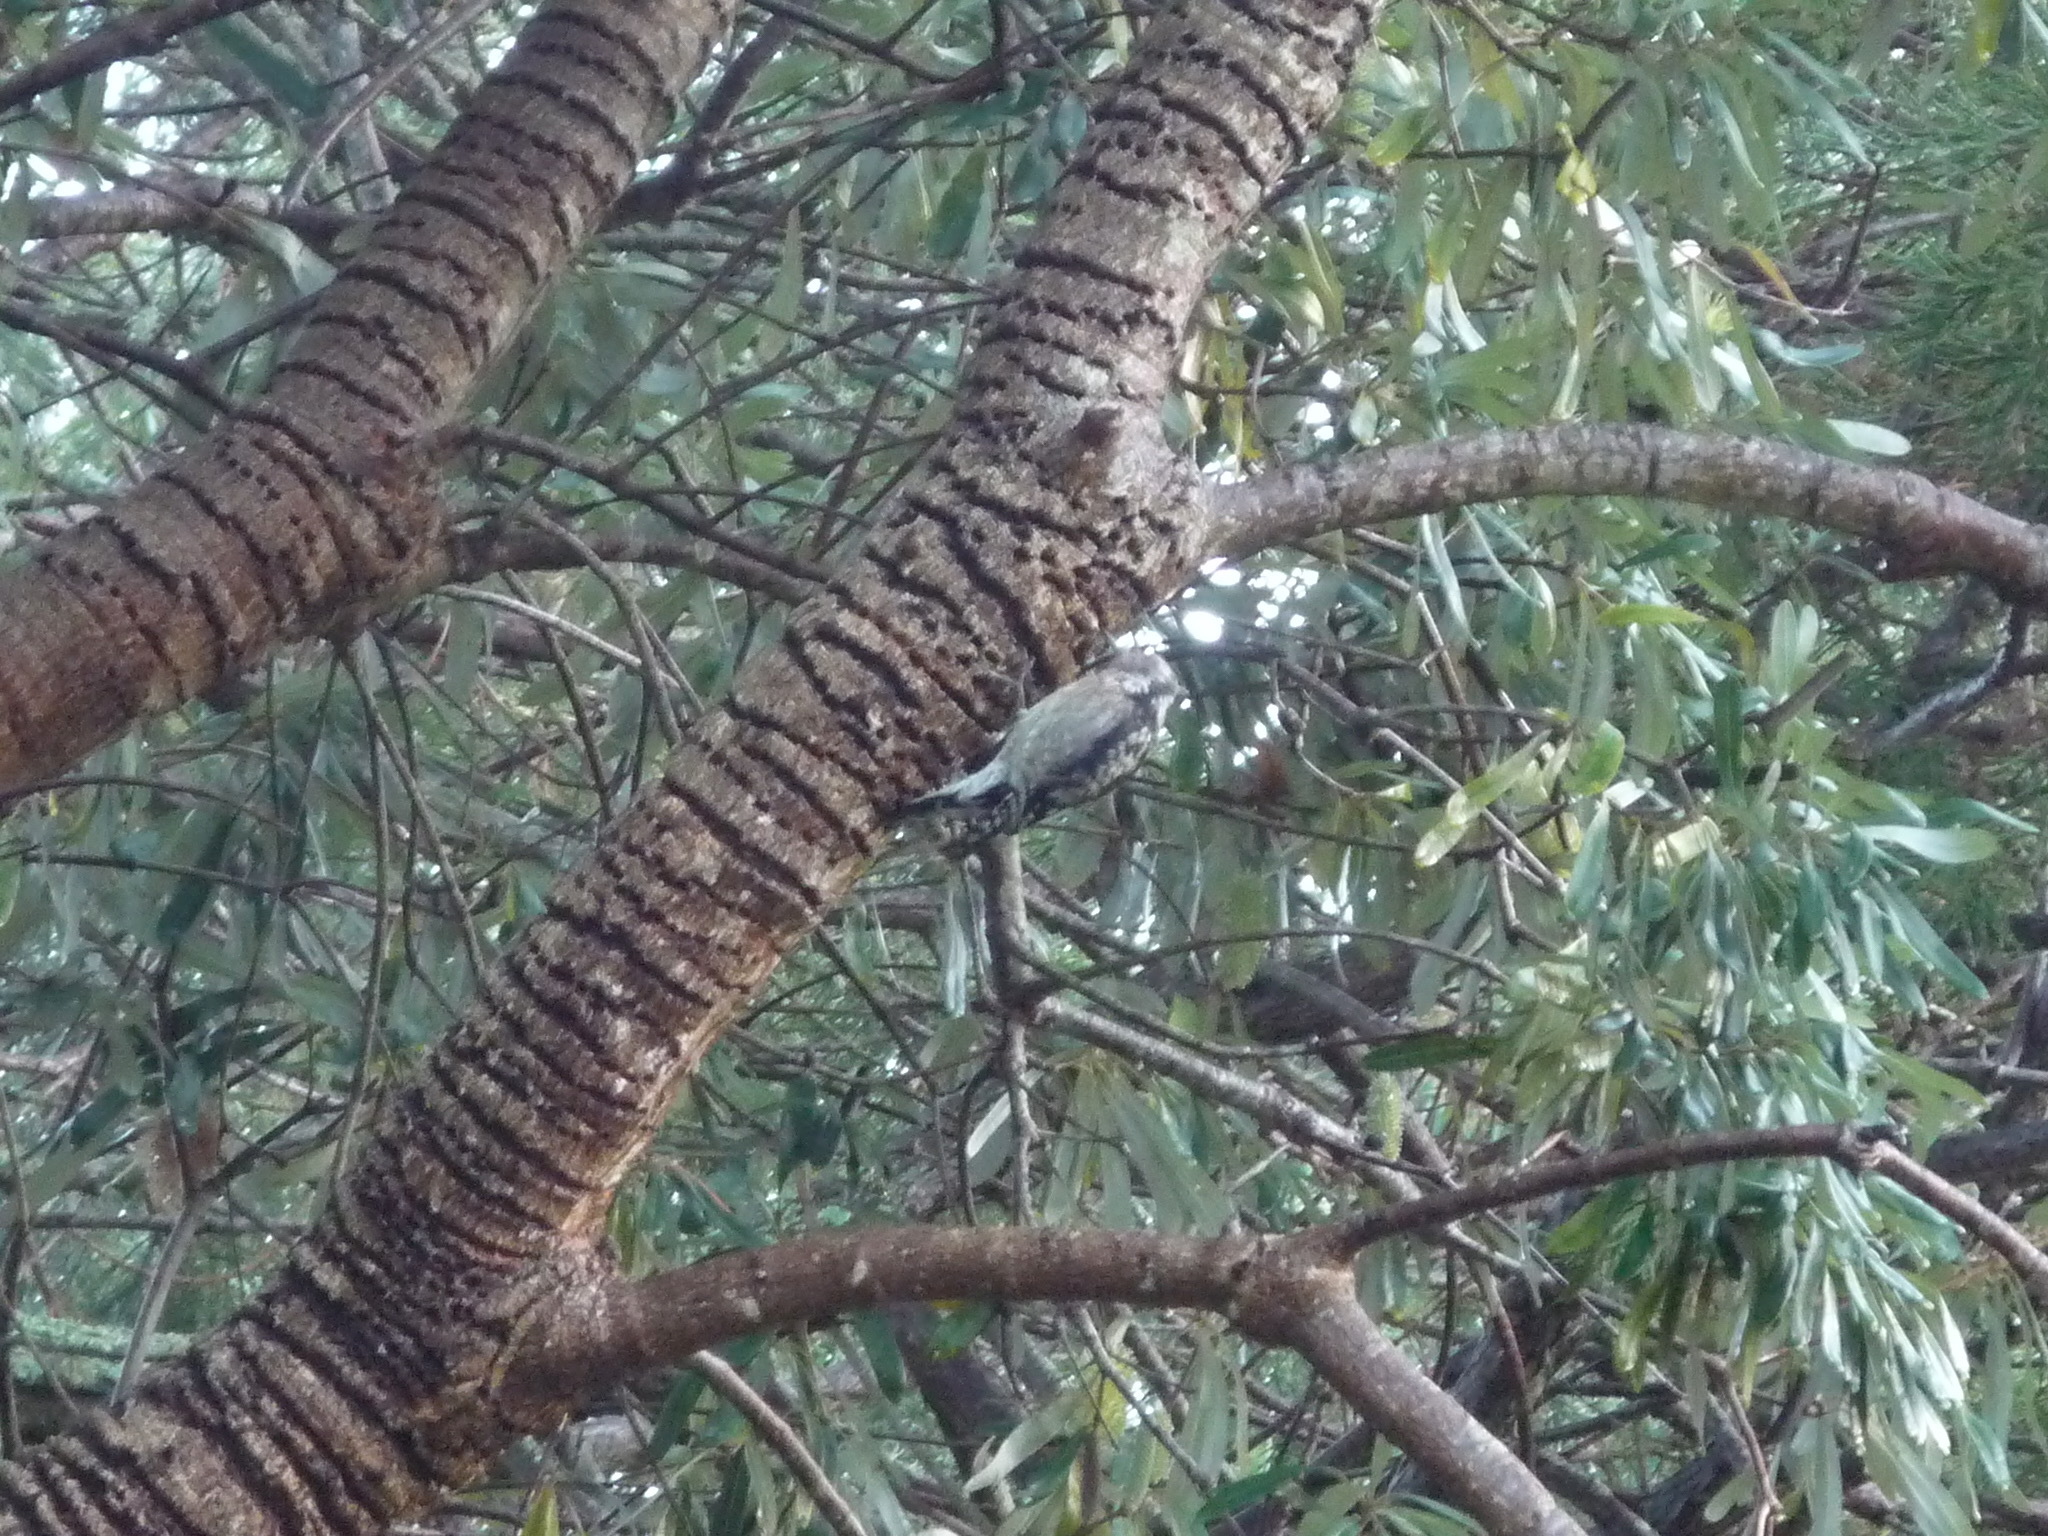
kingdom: Animalia
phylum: Chordata
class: Aves
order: Piciformes
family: Picidae
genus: Sphyrapicus
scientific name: Sphyrapicus
